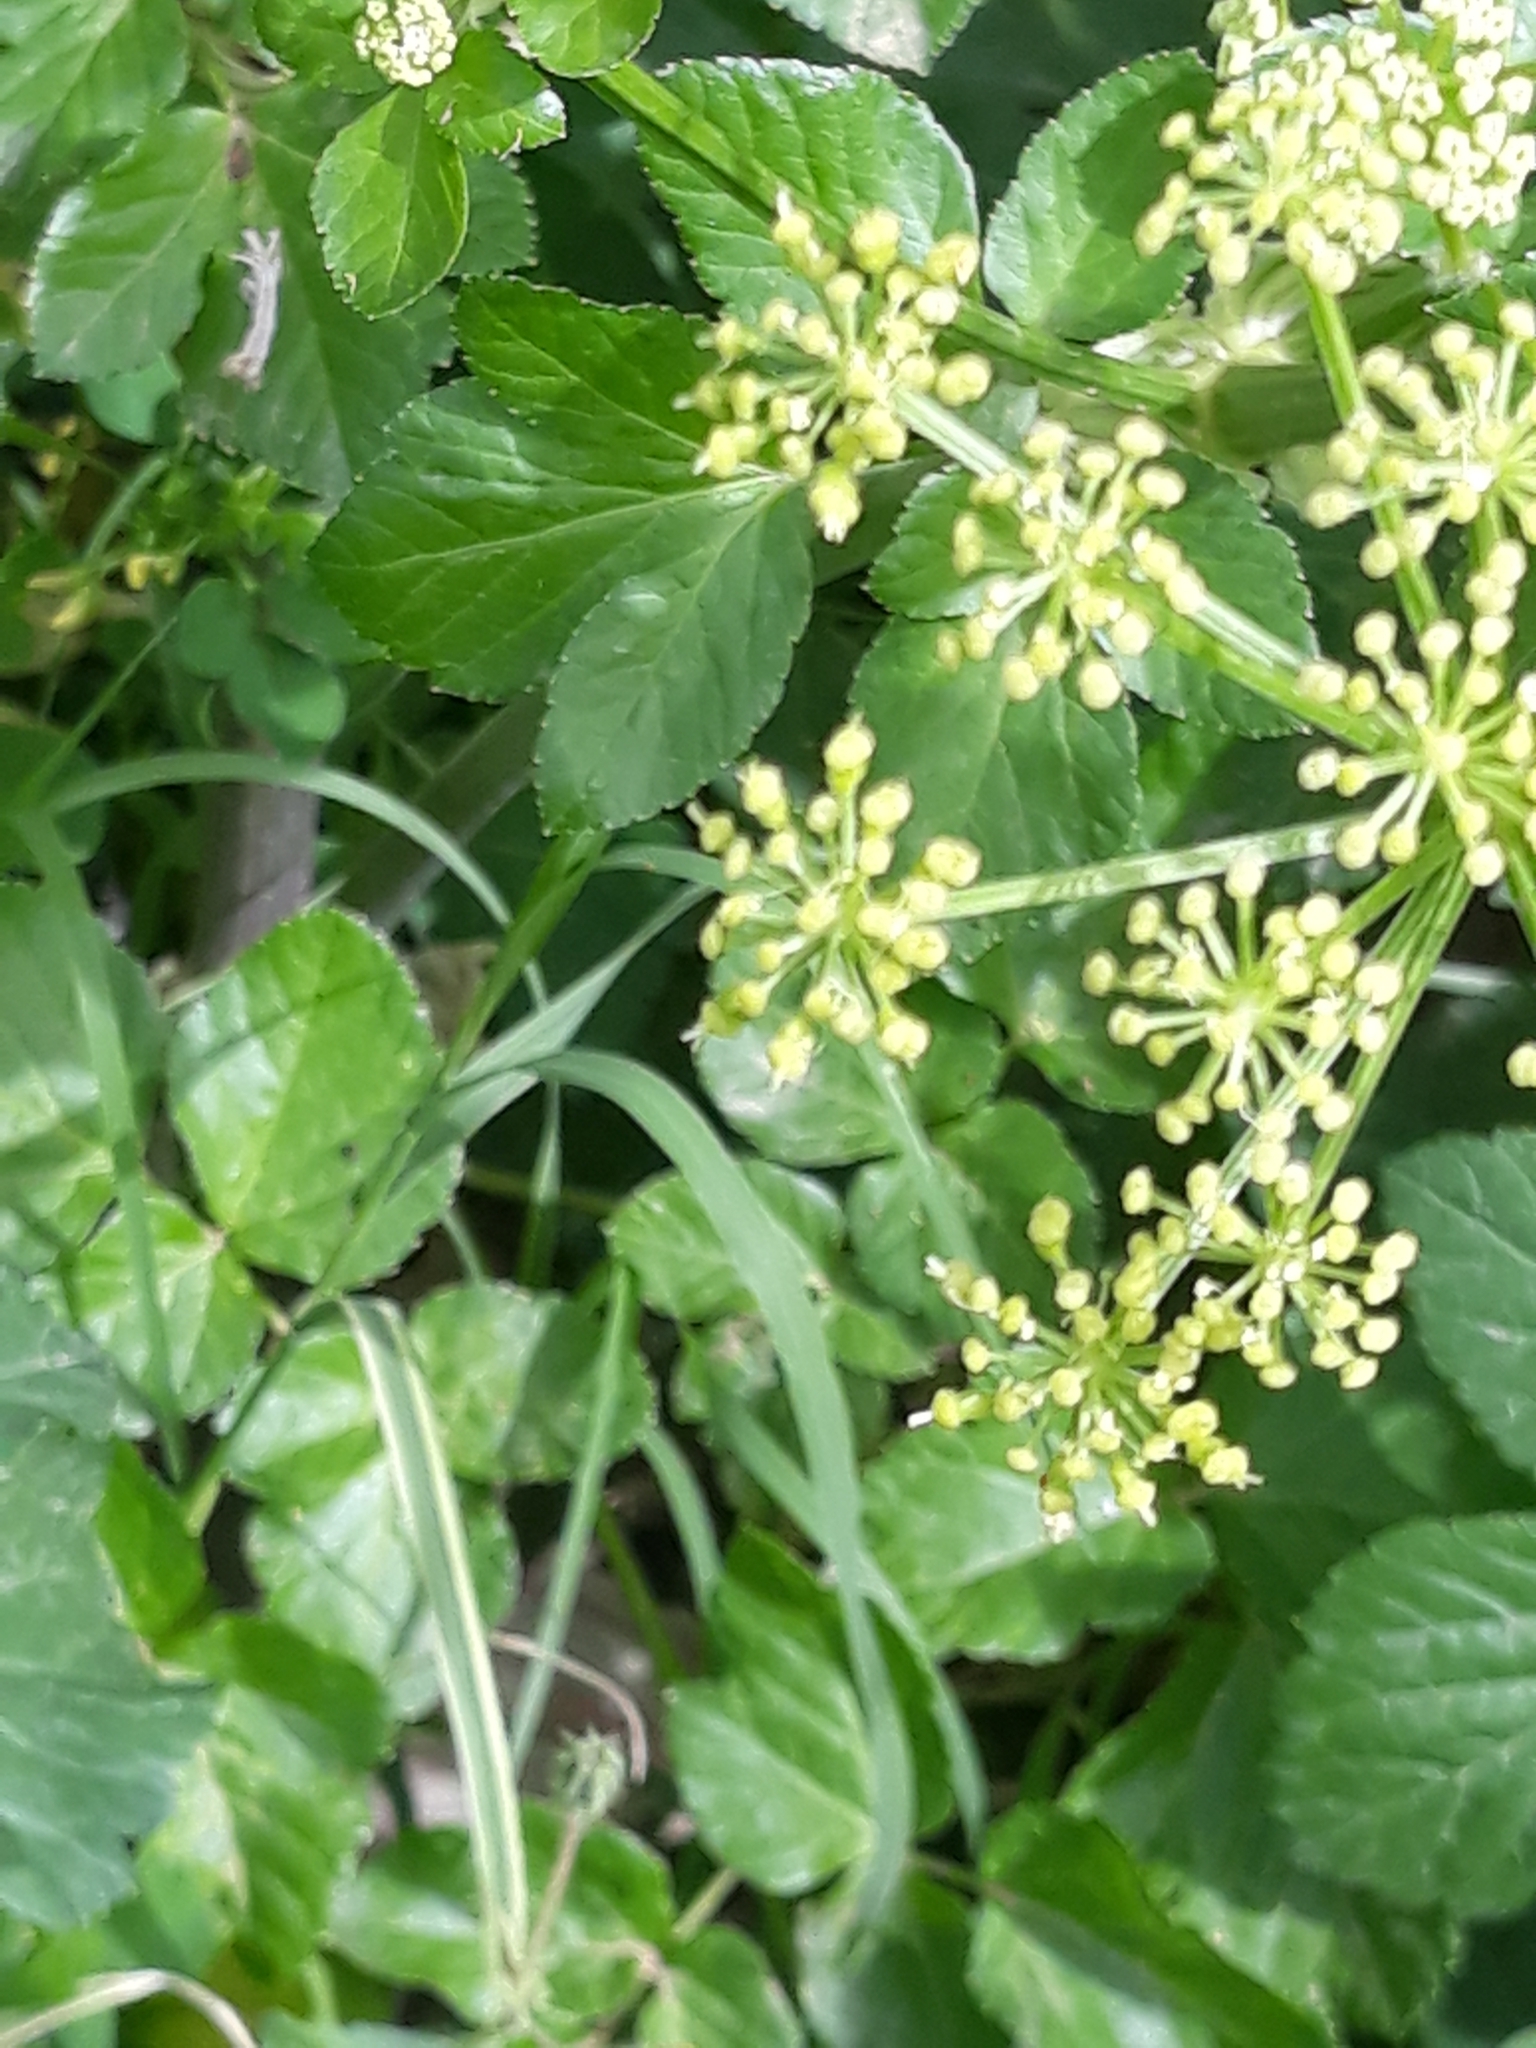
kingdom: Plantae
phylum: Tracheophyta
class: Magnoliopsida
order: Apiales
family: Apiaceae
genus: Smyrnium
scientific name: Smyrnium olusatrum
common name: Alexanders
